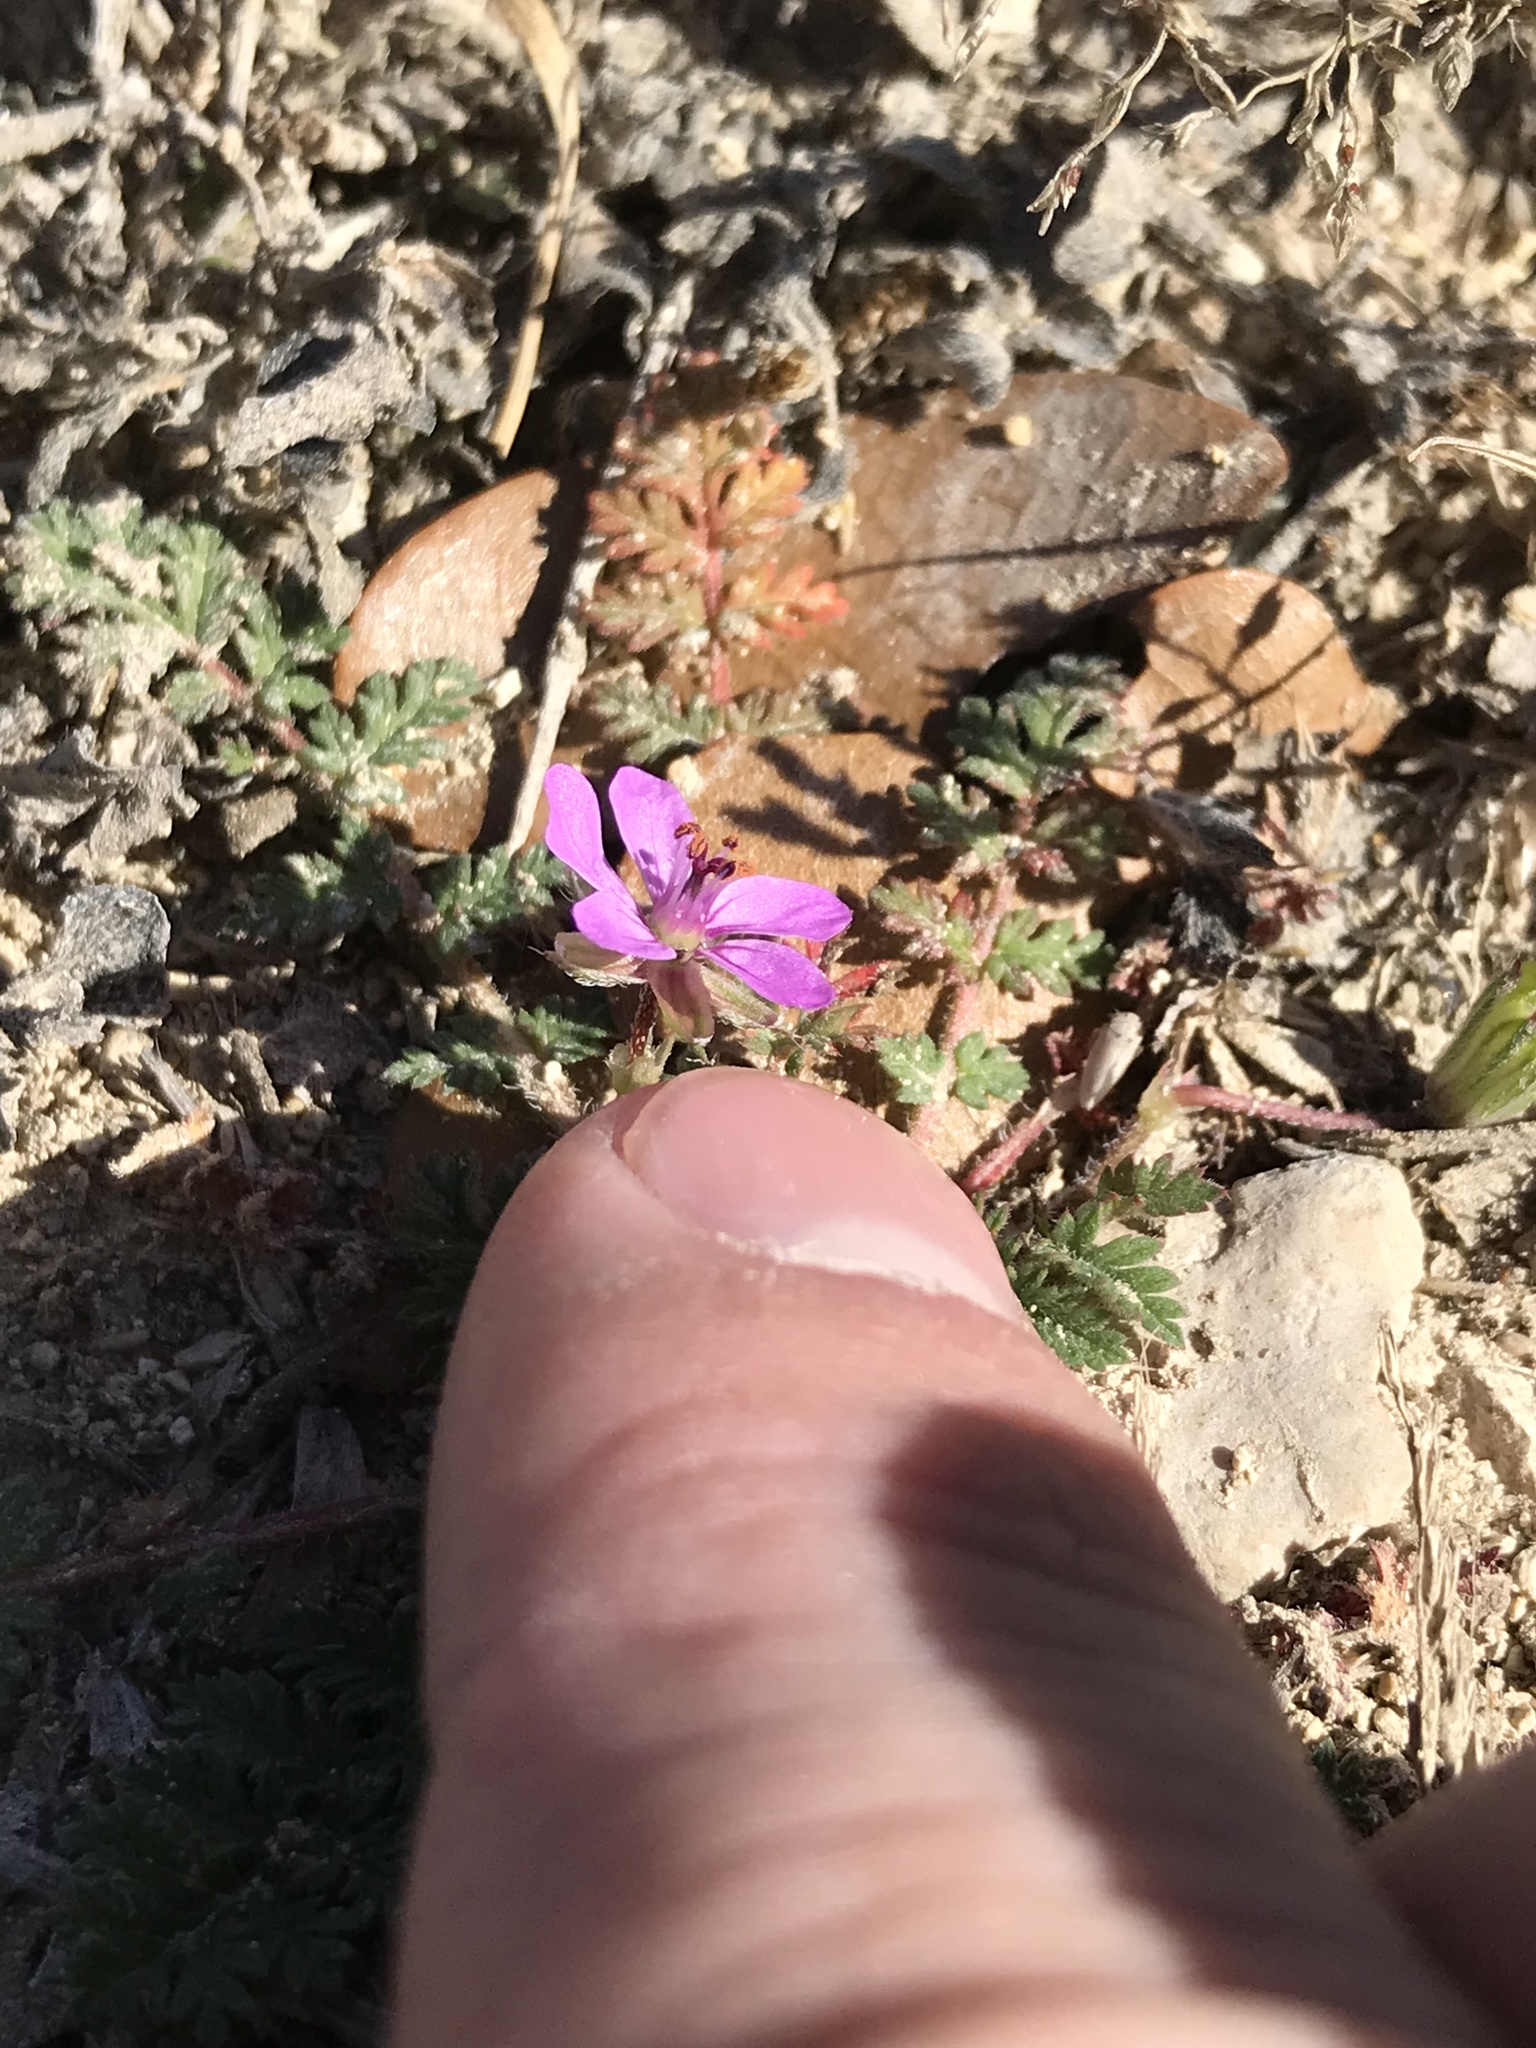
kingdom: Plantae
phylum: Tracheophyta
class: Magnoliopsida
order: Geraniales
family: Geraniaceae
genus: Erodium
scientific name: Erodium cicutarium
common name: Common stork's-bill
